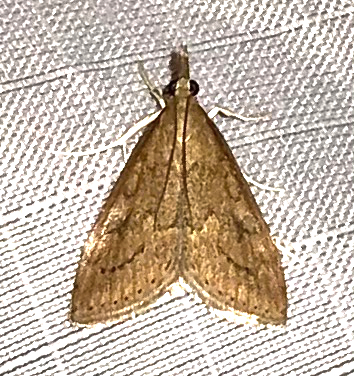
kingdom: Animalia
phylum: Arthropoda
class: Insecta
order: Lepidoptera
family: Crambidae
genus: Udea
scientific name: Udea rubigalis
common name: Celery leaftier moth
